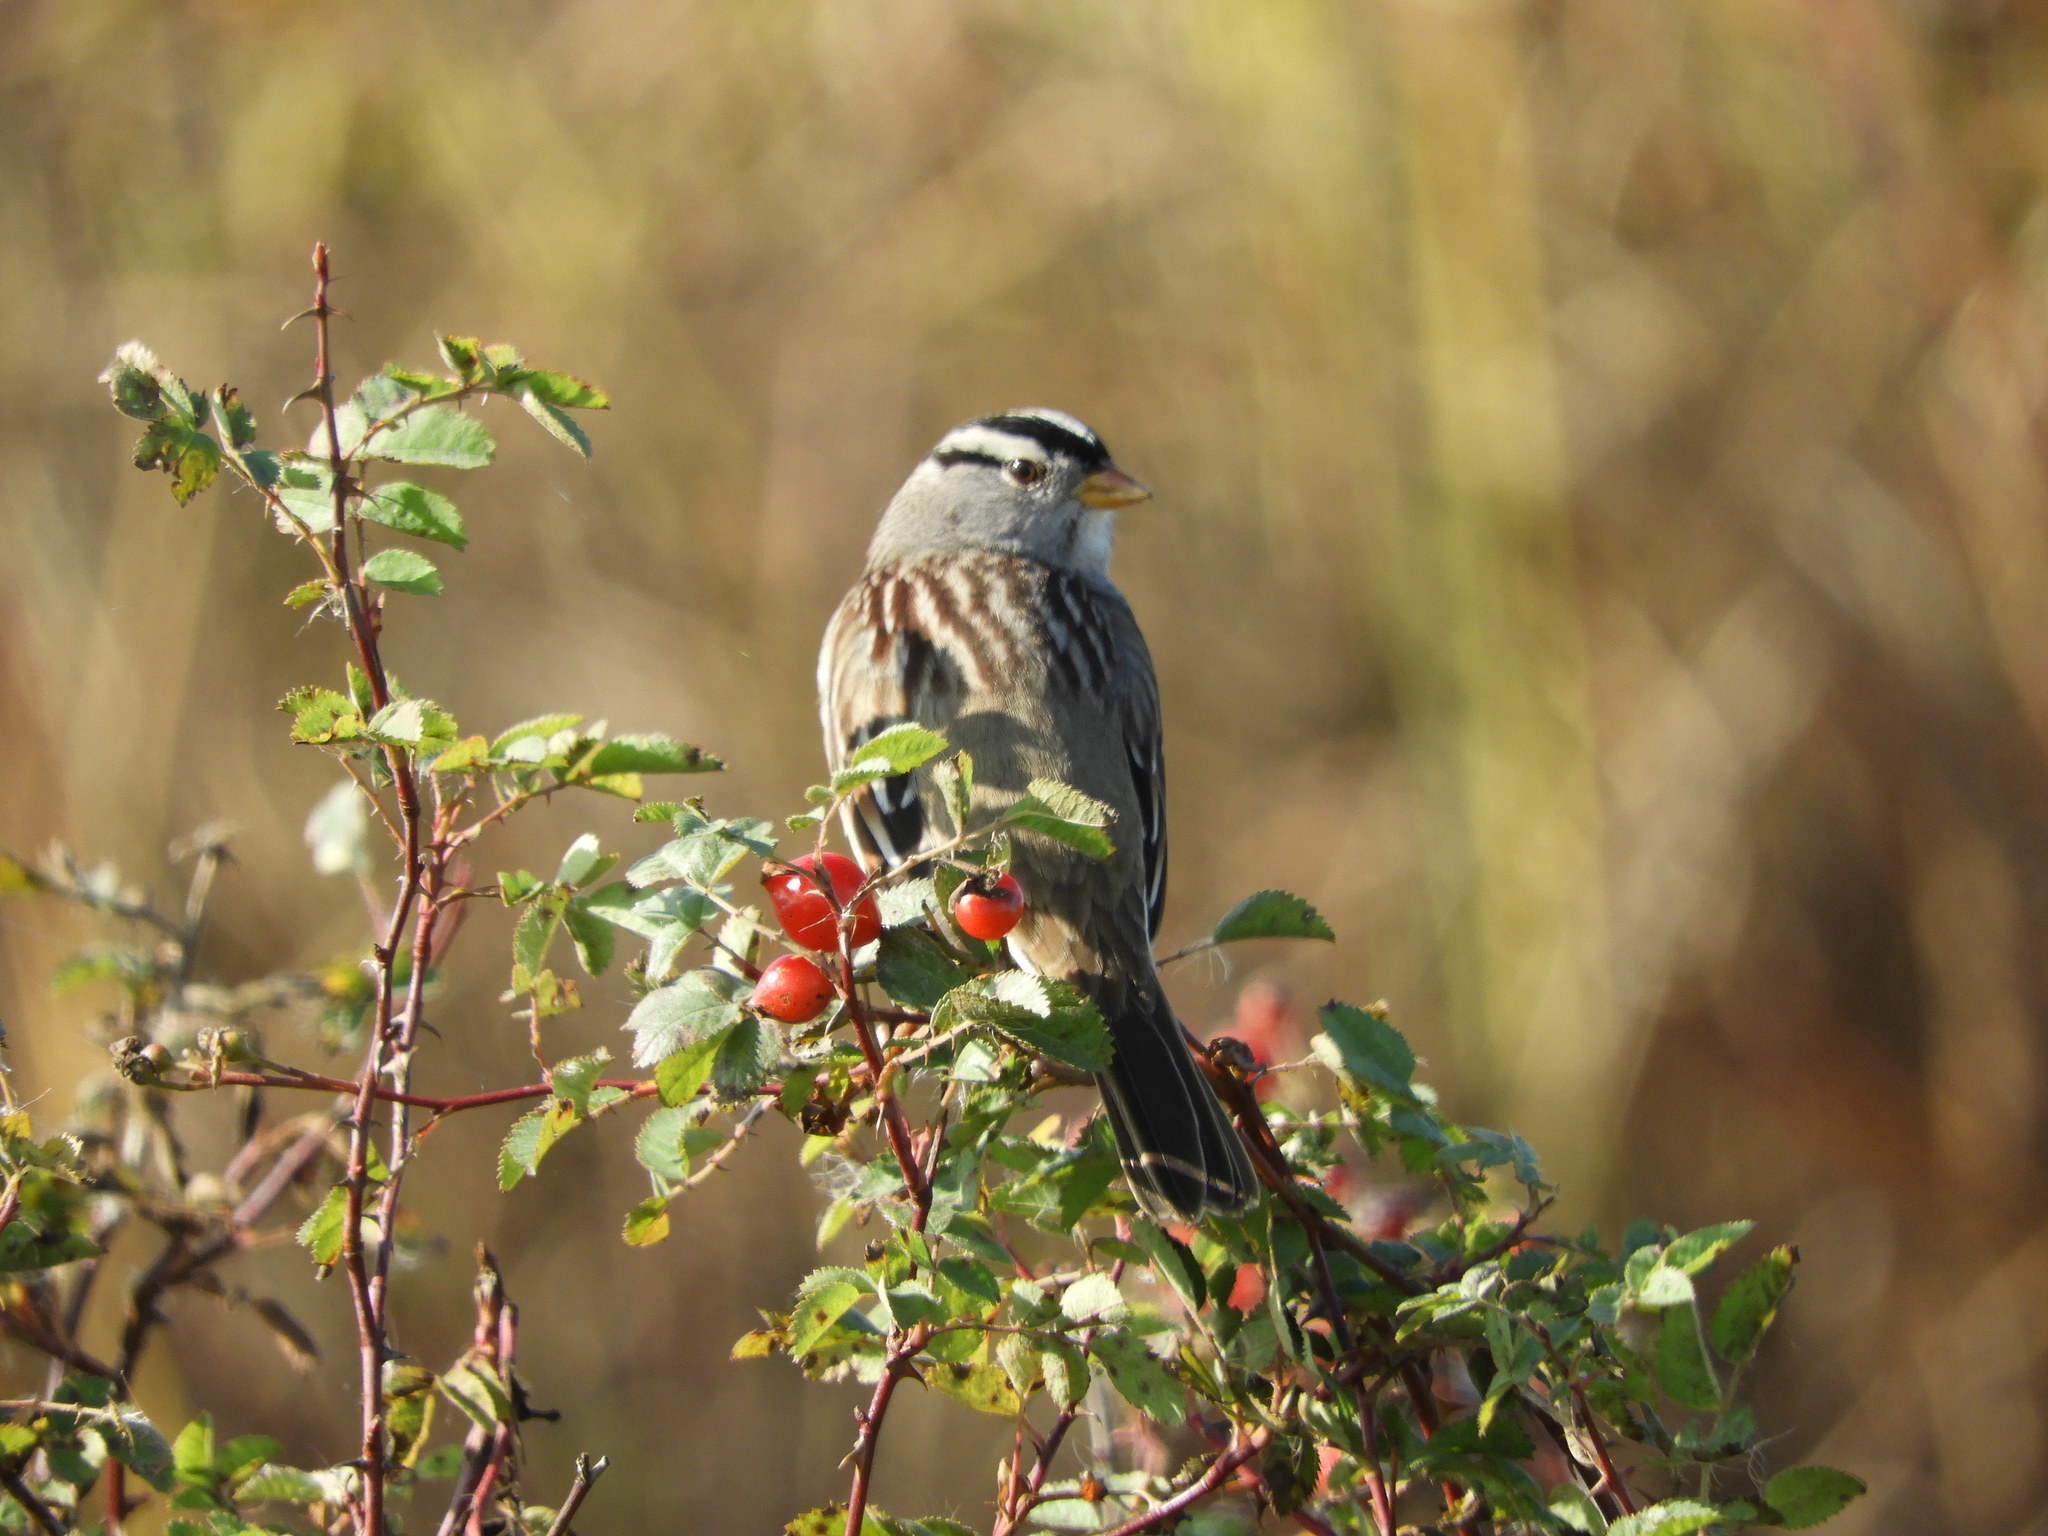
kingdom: Animalia
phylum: Chordata
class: Aves
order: Passeriformes
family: Passerellidae
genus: Zonotrichia
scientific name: Zonotrichia leucophrys
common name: White-crowned sparrow
